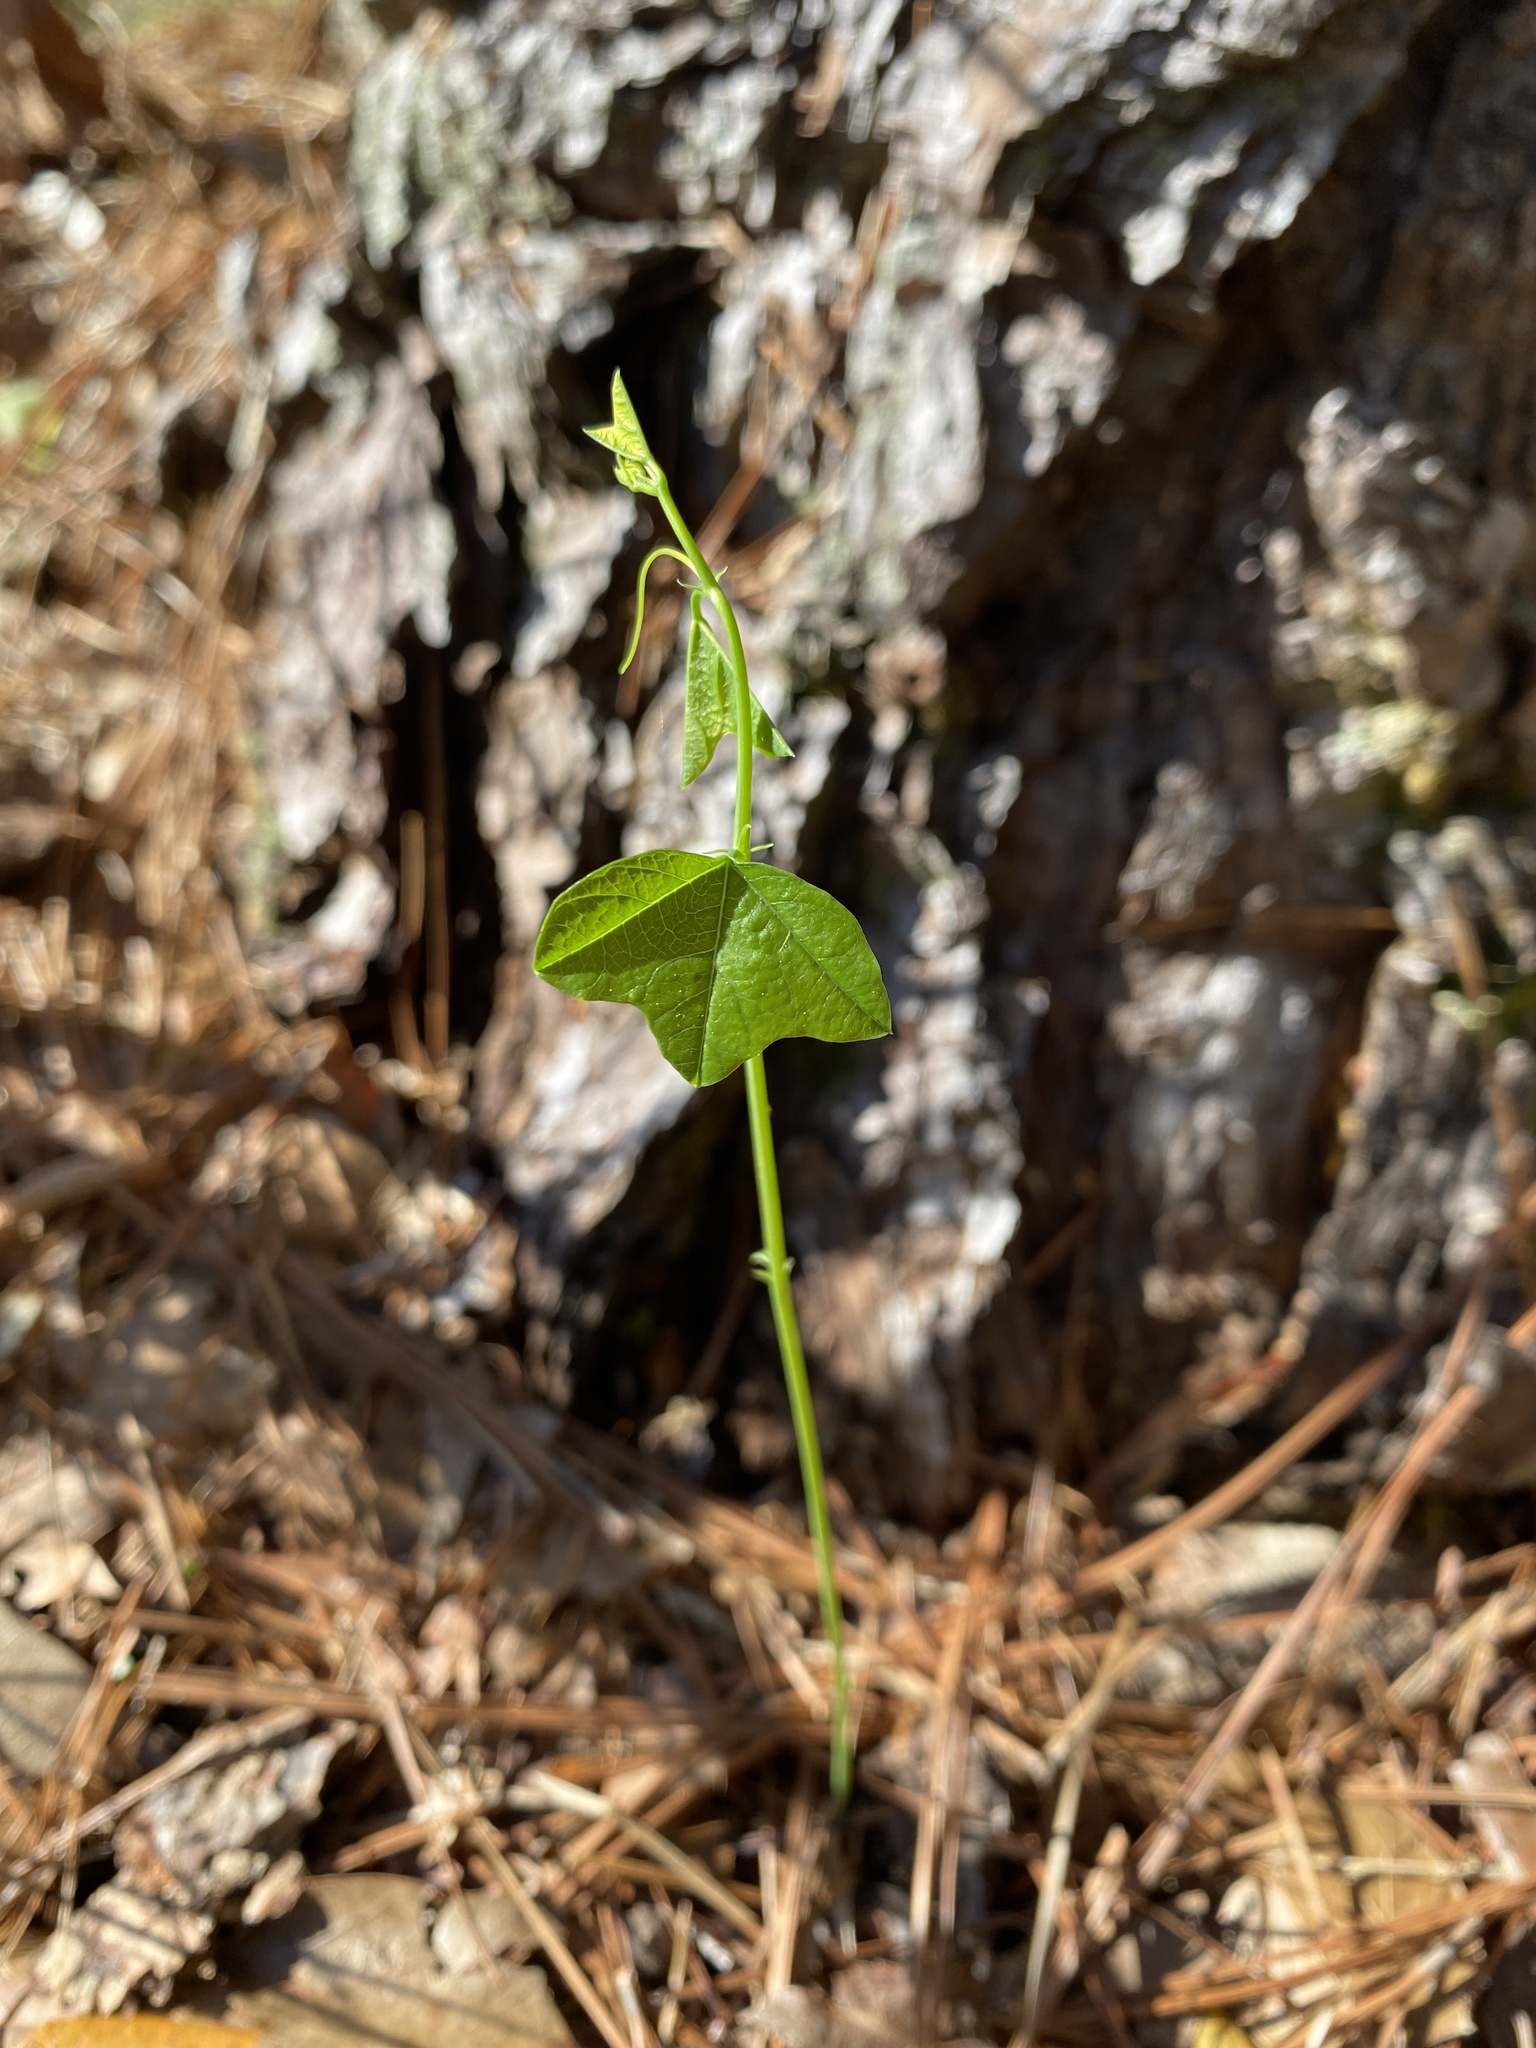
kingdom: Plantae
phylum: Tracheophyta
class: Magnoliopsida
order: Malpighiales
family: Passifloraceae
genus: Passiflora
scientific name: Passiflora lutea
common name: Yellow passionflower
